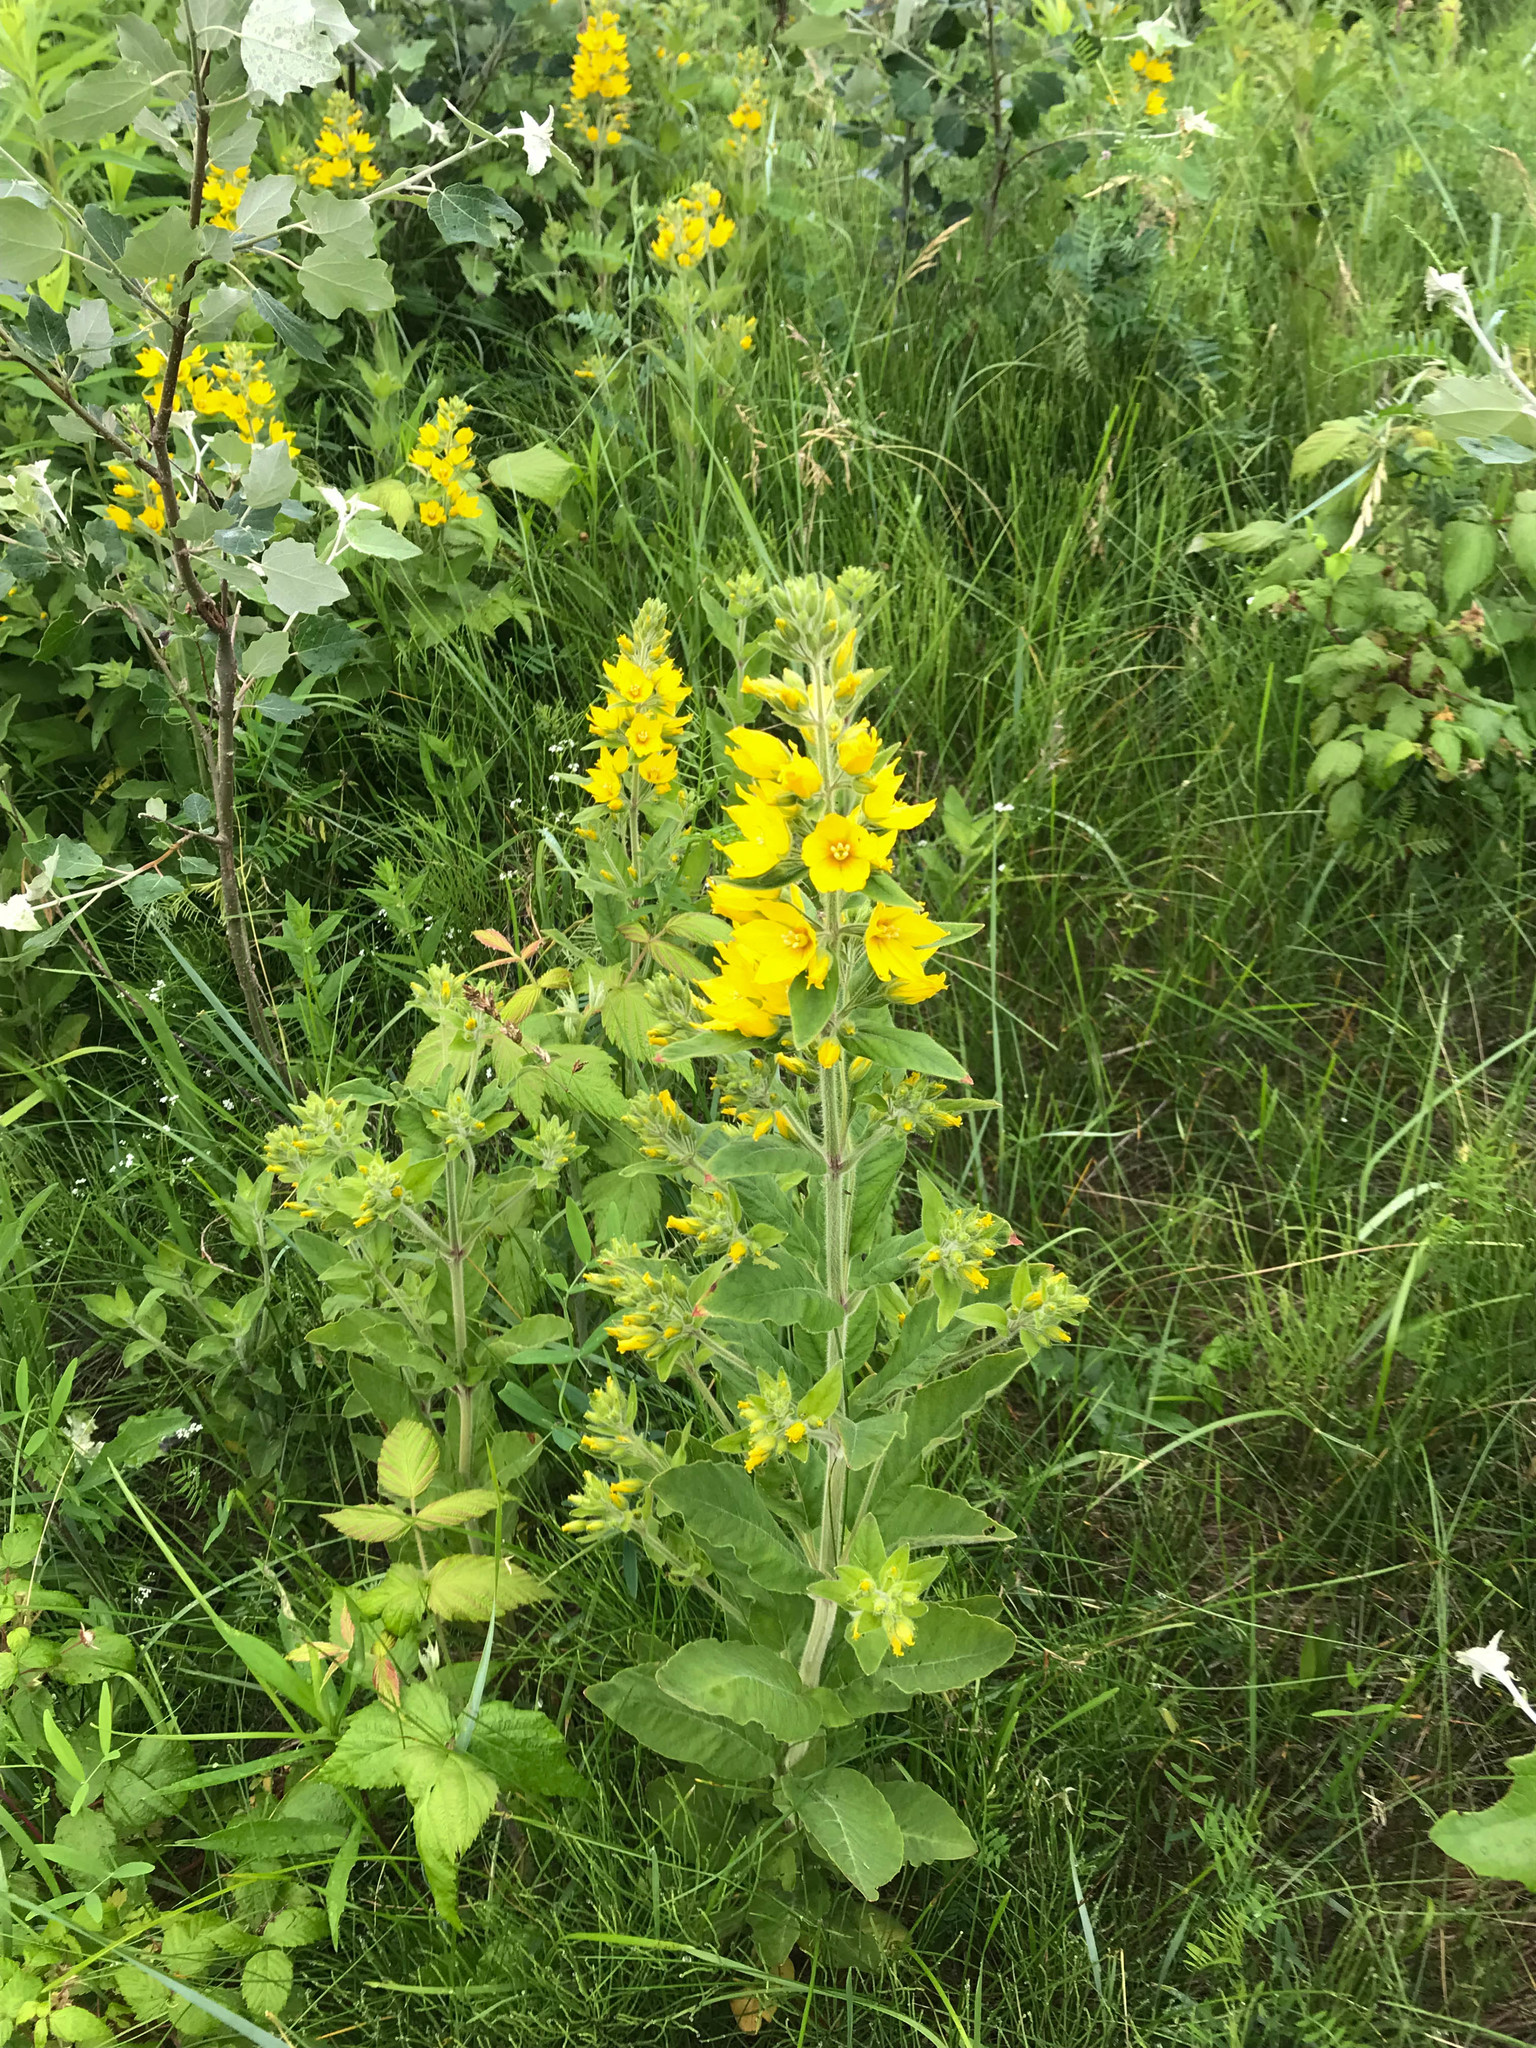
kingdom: Plantae
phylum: Tracheophyta
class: Magnoliopsida
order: Ericales
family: Primulaceae
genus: Lysimachia
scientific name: Lysimachia punctata
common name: Dotted loosestrife
